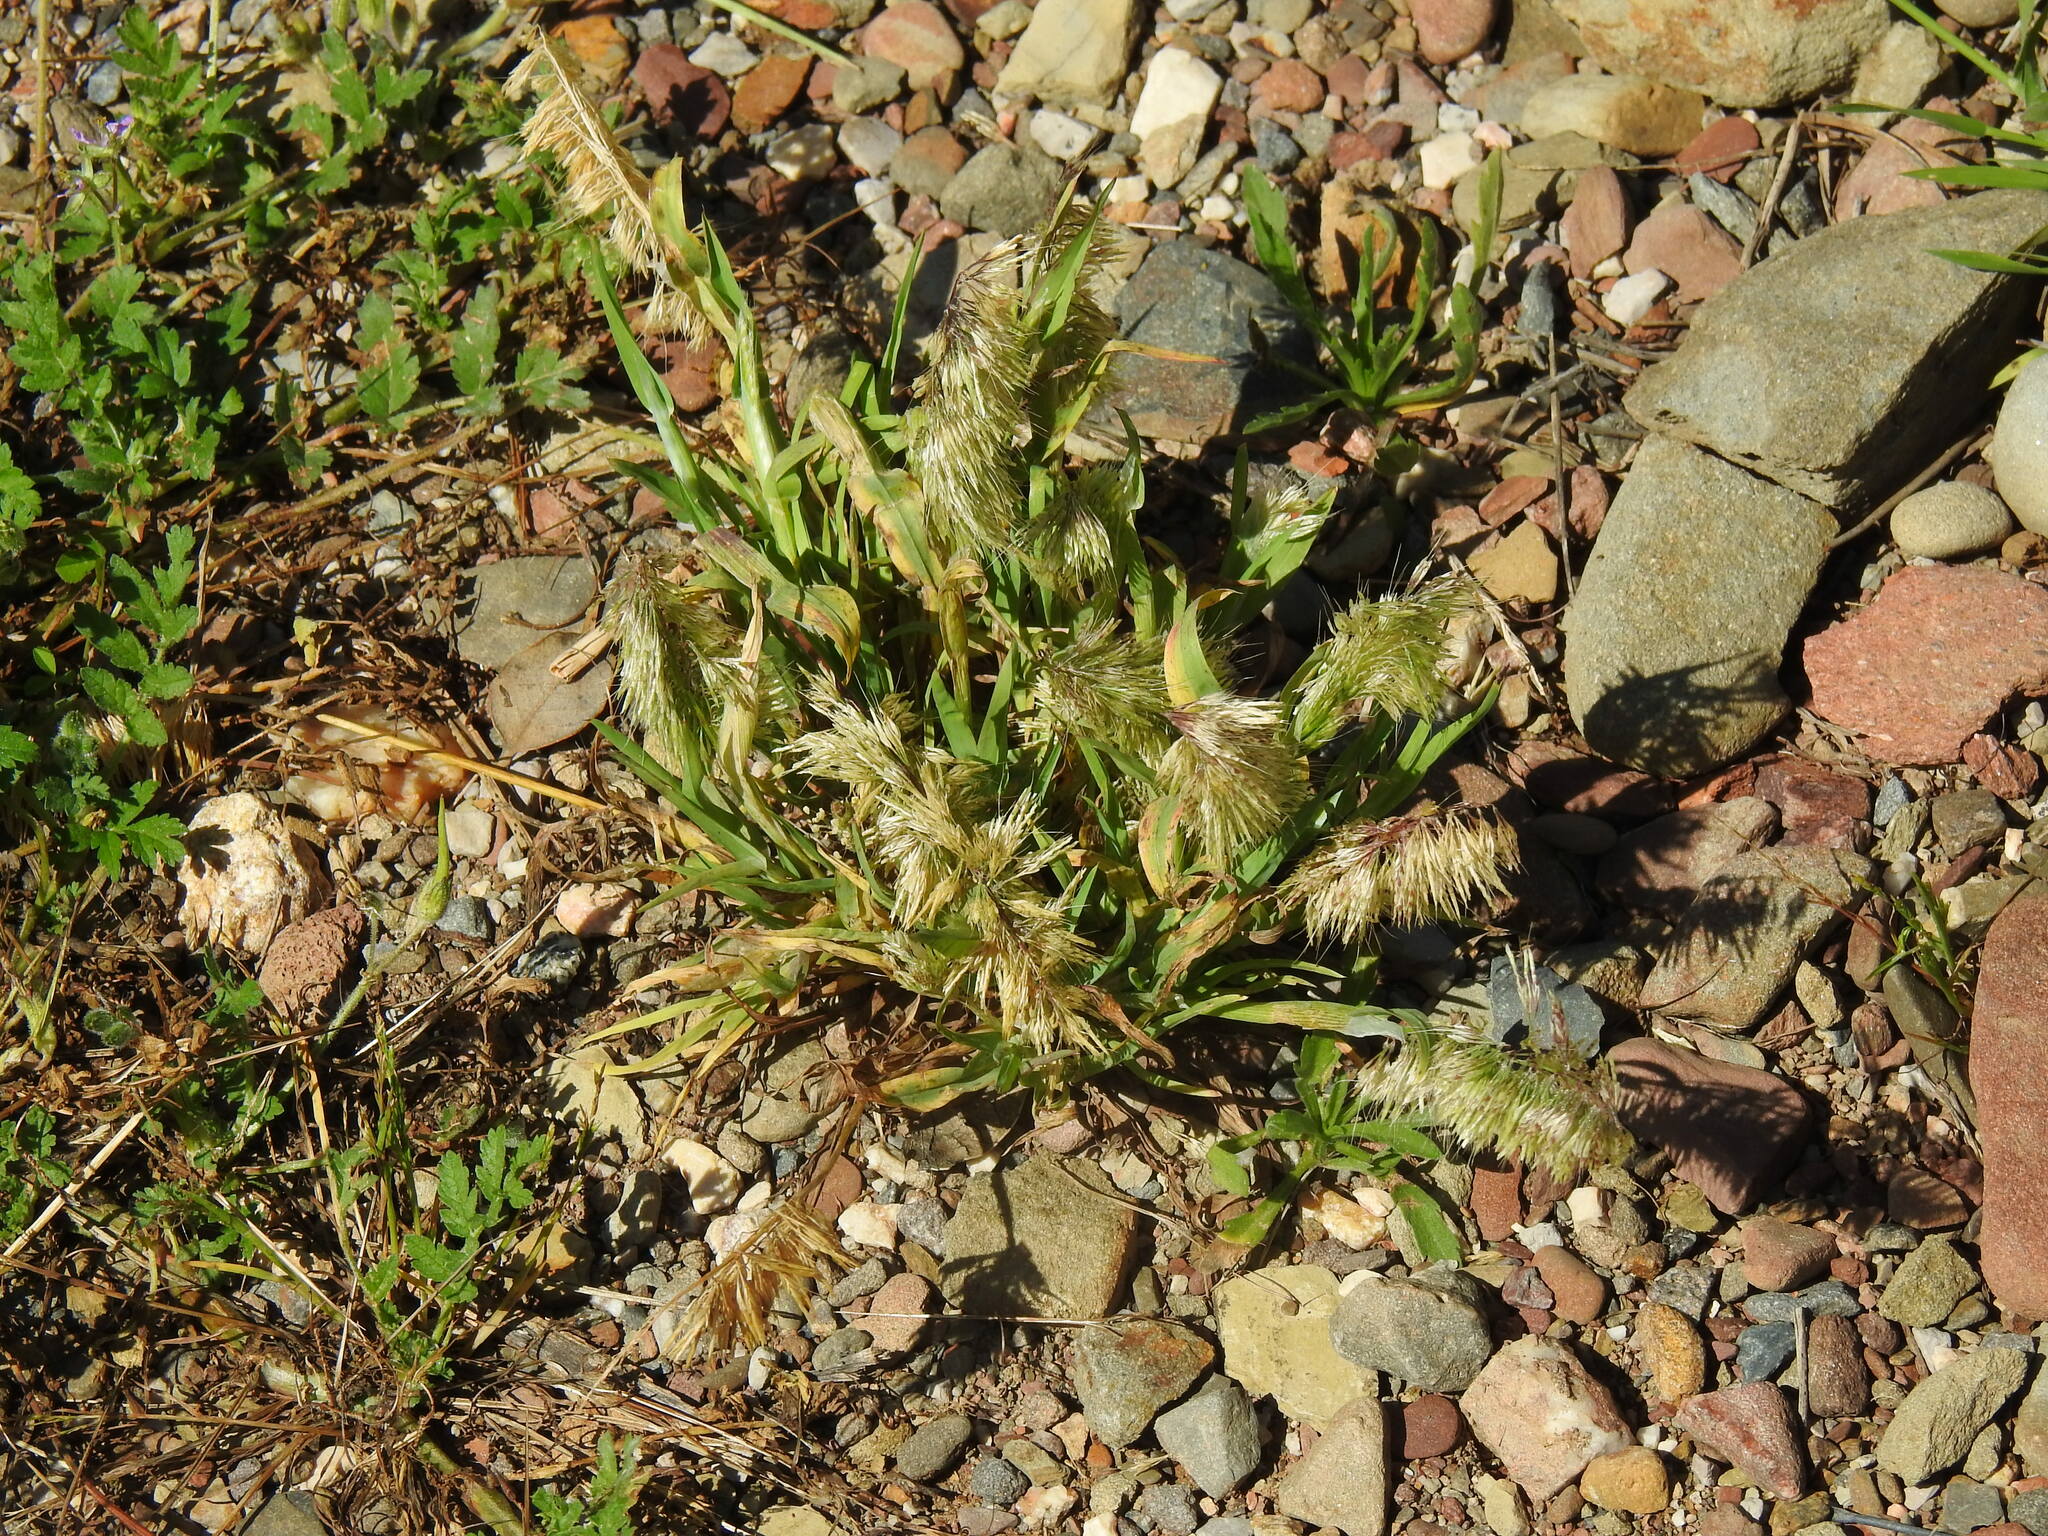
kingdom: Plantae
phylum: Tracheophyta
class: Liliopsida
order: Poales
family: Poaceae
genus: Lamarckia
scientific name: Lamarckia aurea
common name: Golden dog's-tail
